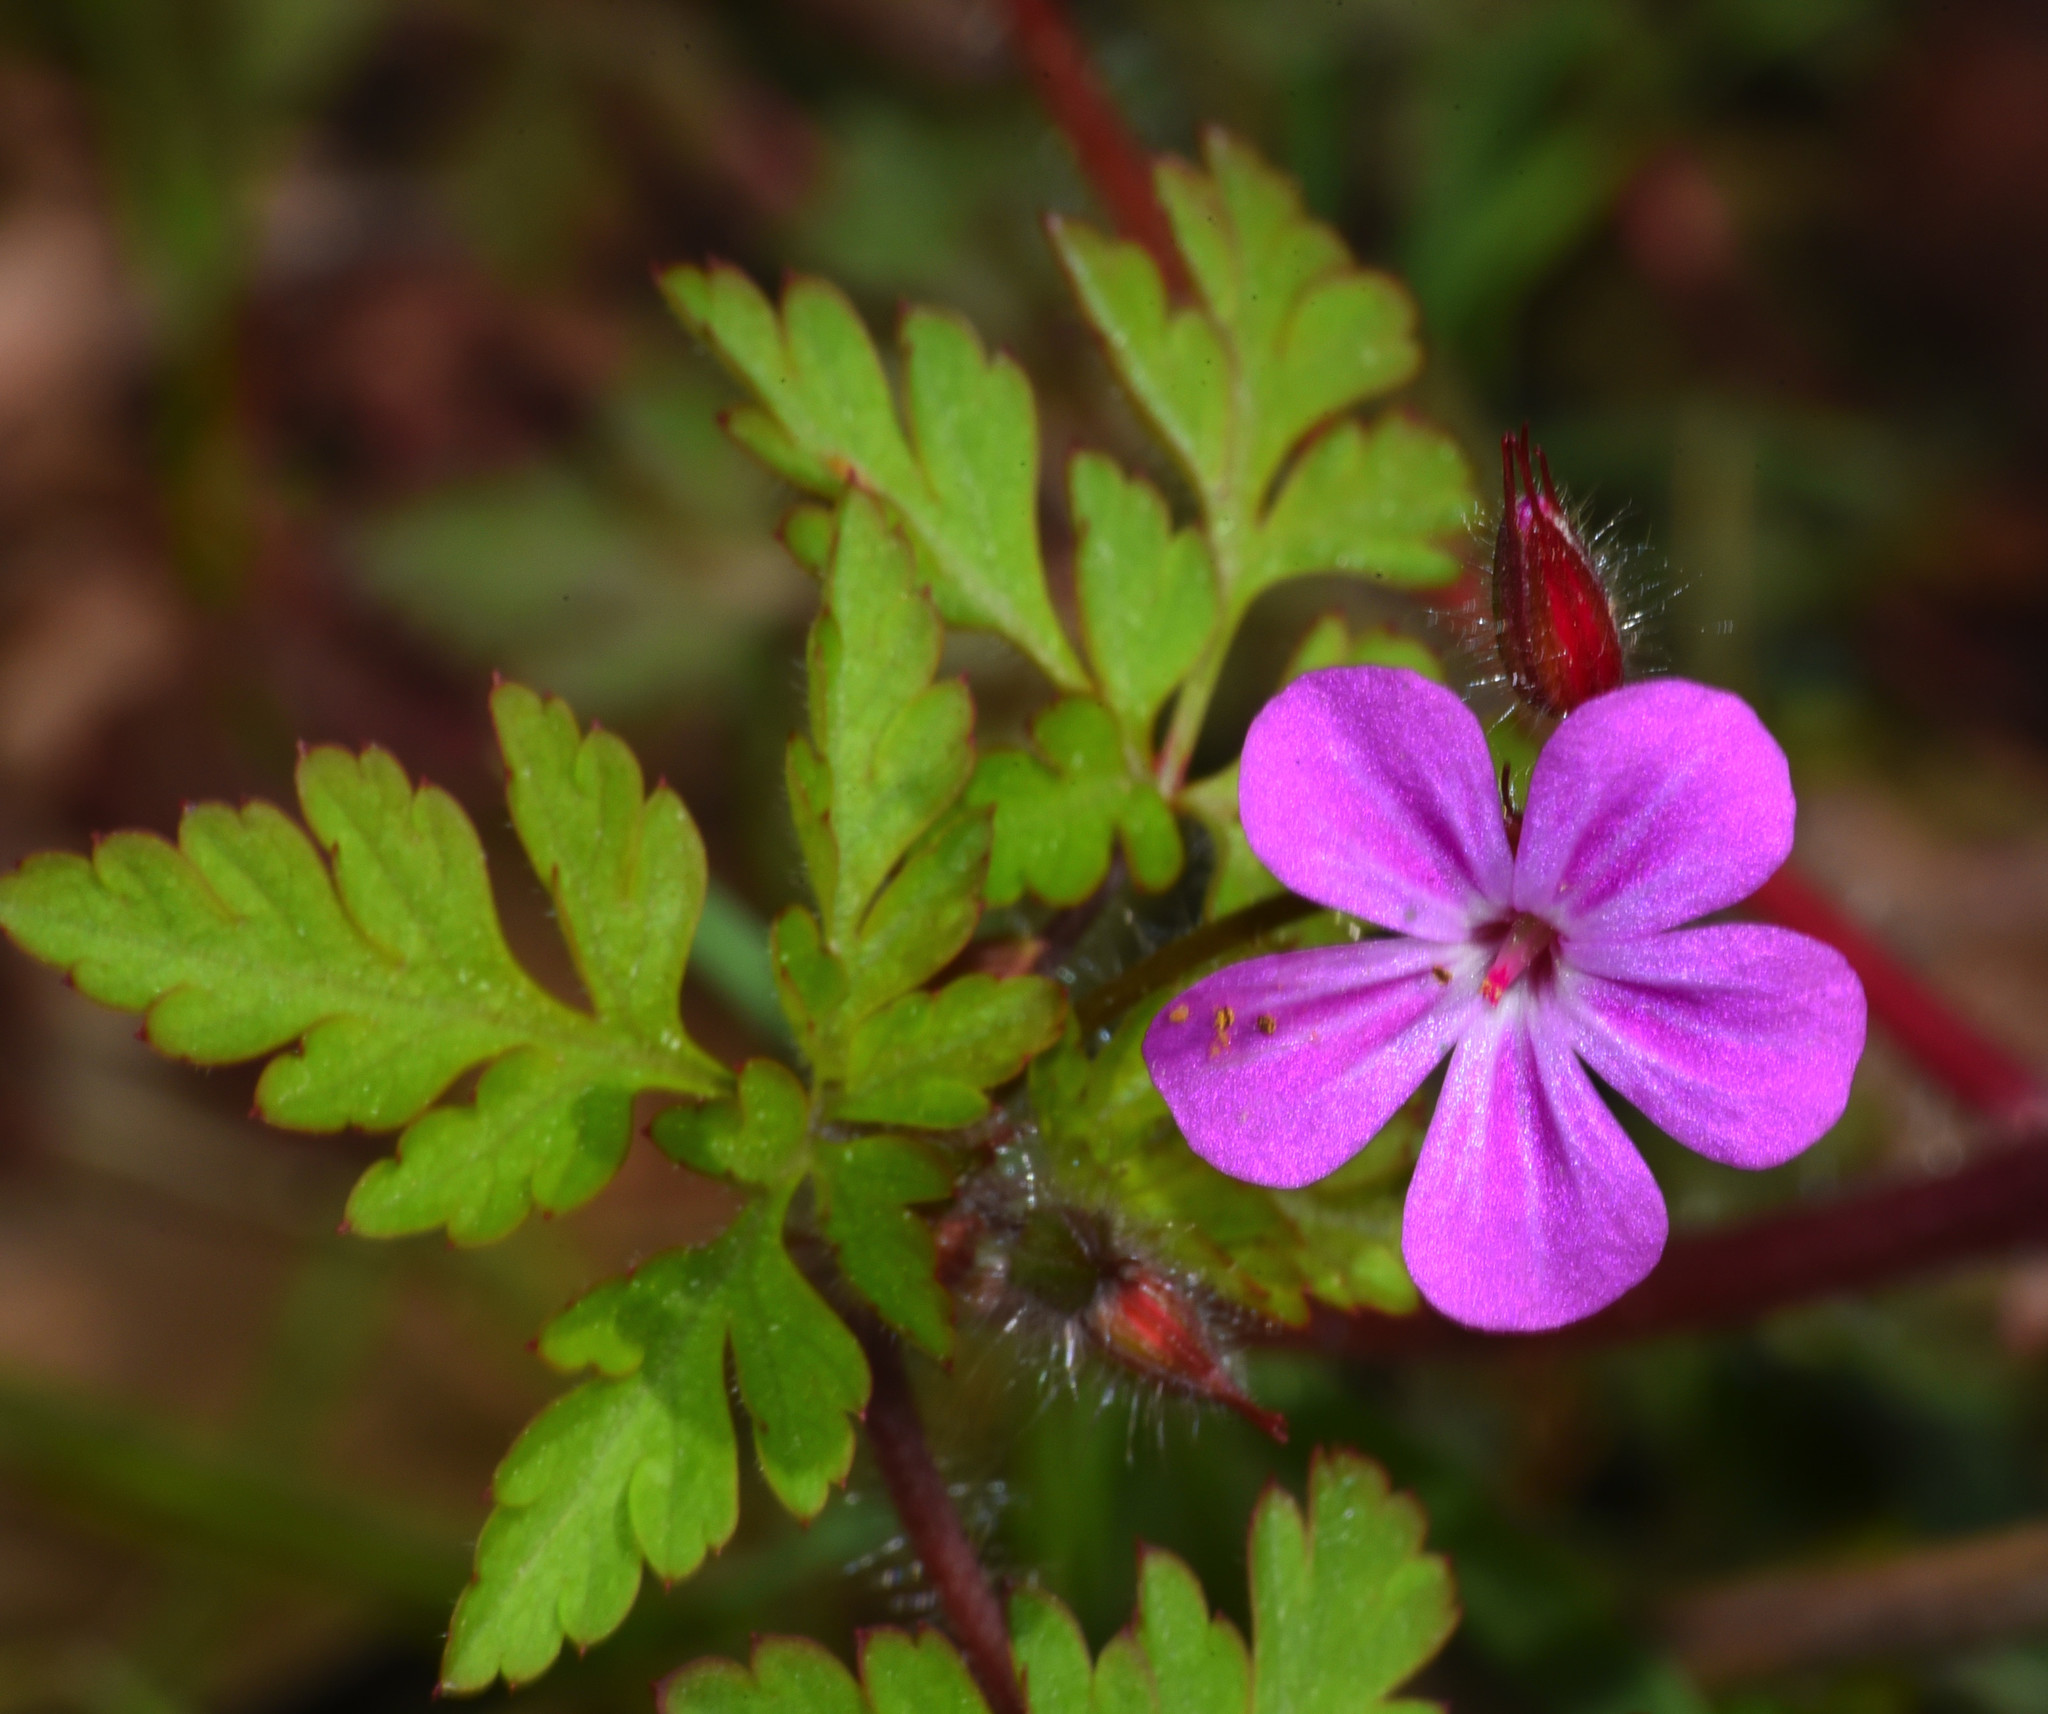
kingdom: Plantae
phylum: Tracheophyta
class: Magnoliopsida
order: Geraniales
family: Geraniaceae
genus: Geranium
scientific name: Geranium robertianum
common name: Herb-robert
